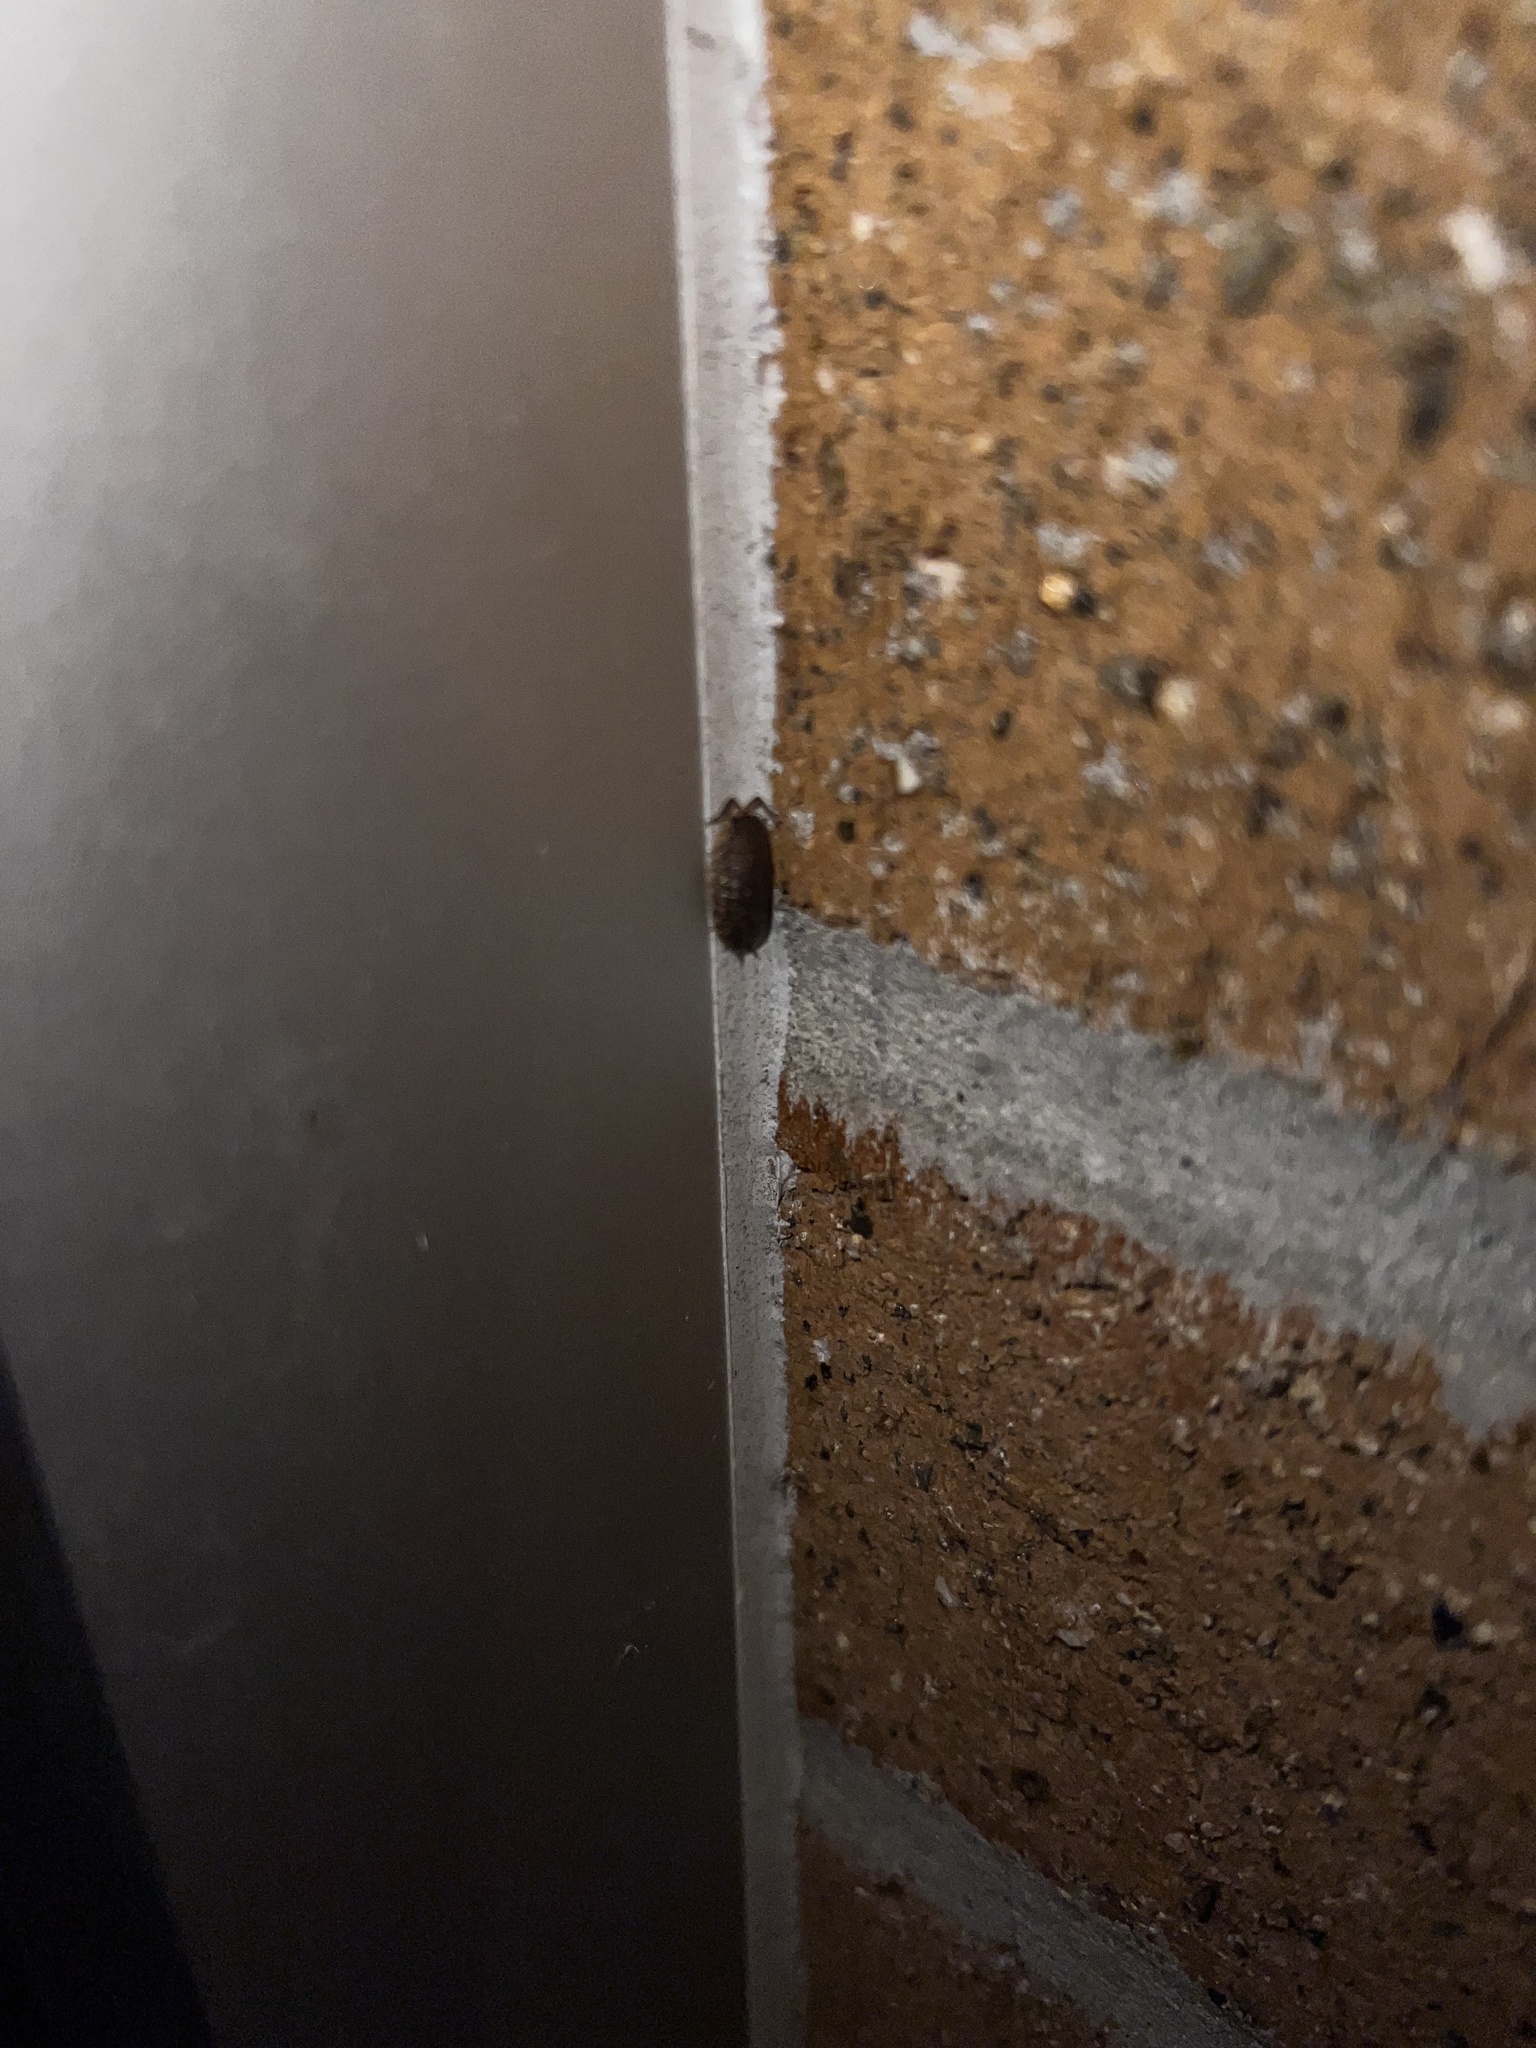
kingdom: Animalia
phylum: Arthropoda
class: Malacostraca
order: Isopoda
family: Porcellionidae
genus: Porcellio
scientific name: Porcellio scaber
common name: Common rough woodlouse
